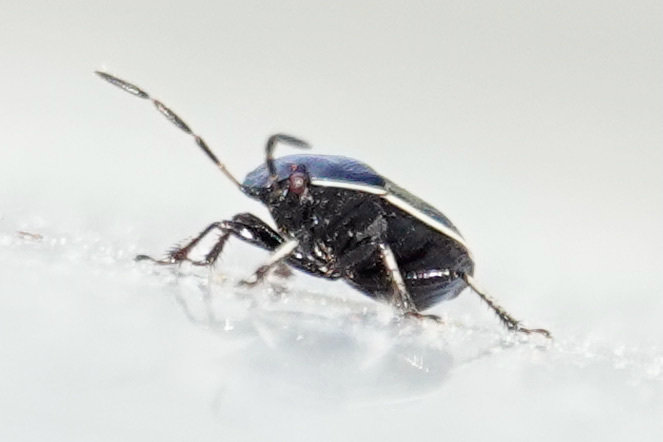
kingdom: Animalia
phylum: Arthropoda
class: Insecta
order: Hemiptera
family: Cydnidae
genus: Sehirus
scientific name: Sehirus cinctus
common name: White-margined burrower bug
